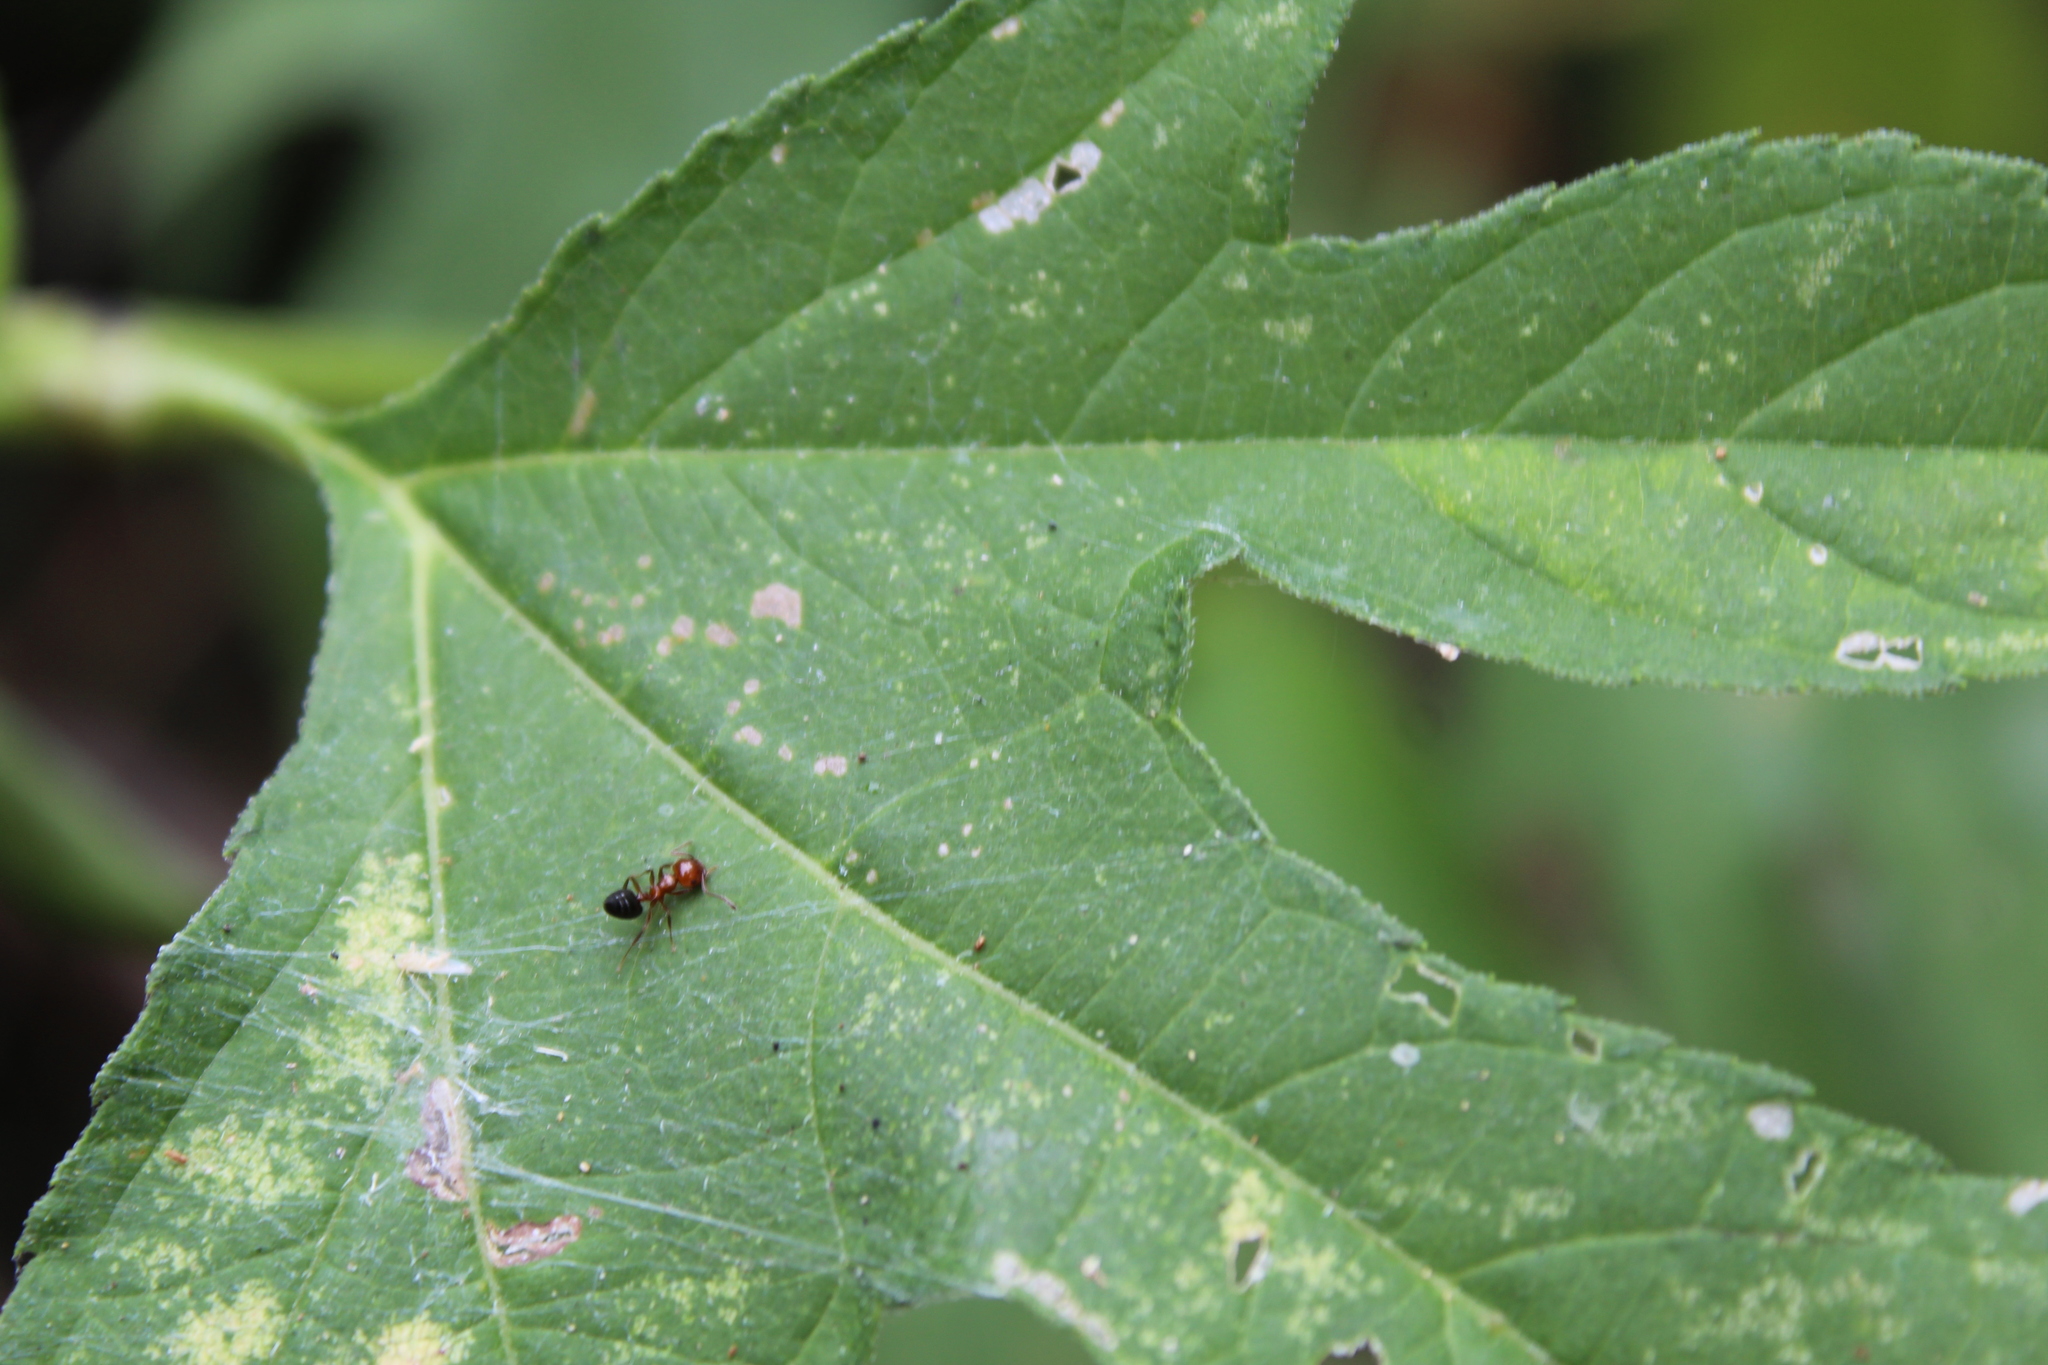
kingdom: Animalia
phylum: Arthropoda
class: Insecta
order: Hymenoptera
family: Formicidae
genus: Crematogaster
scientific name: Crematogaster laeviuscula
